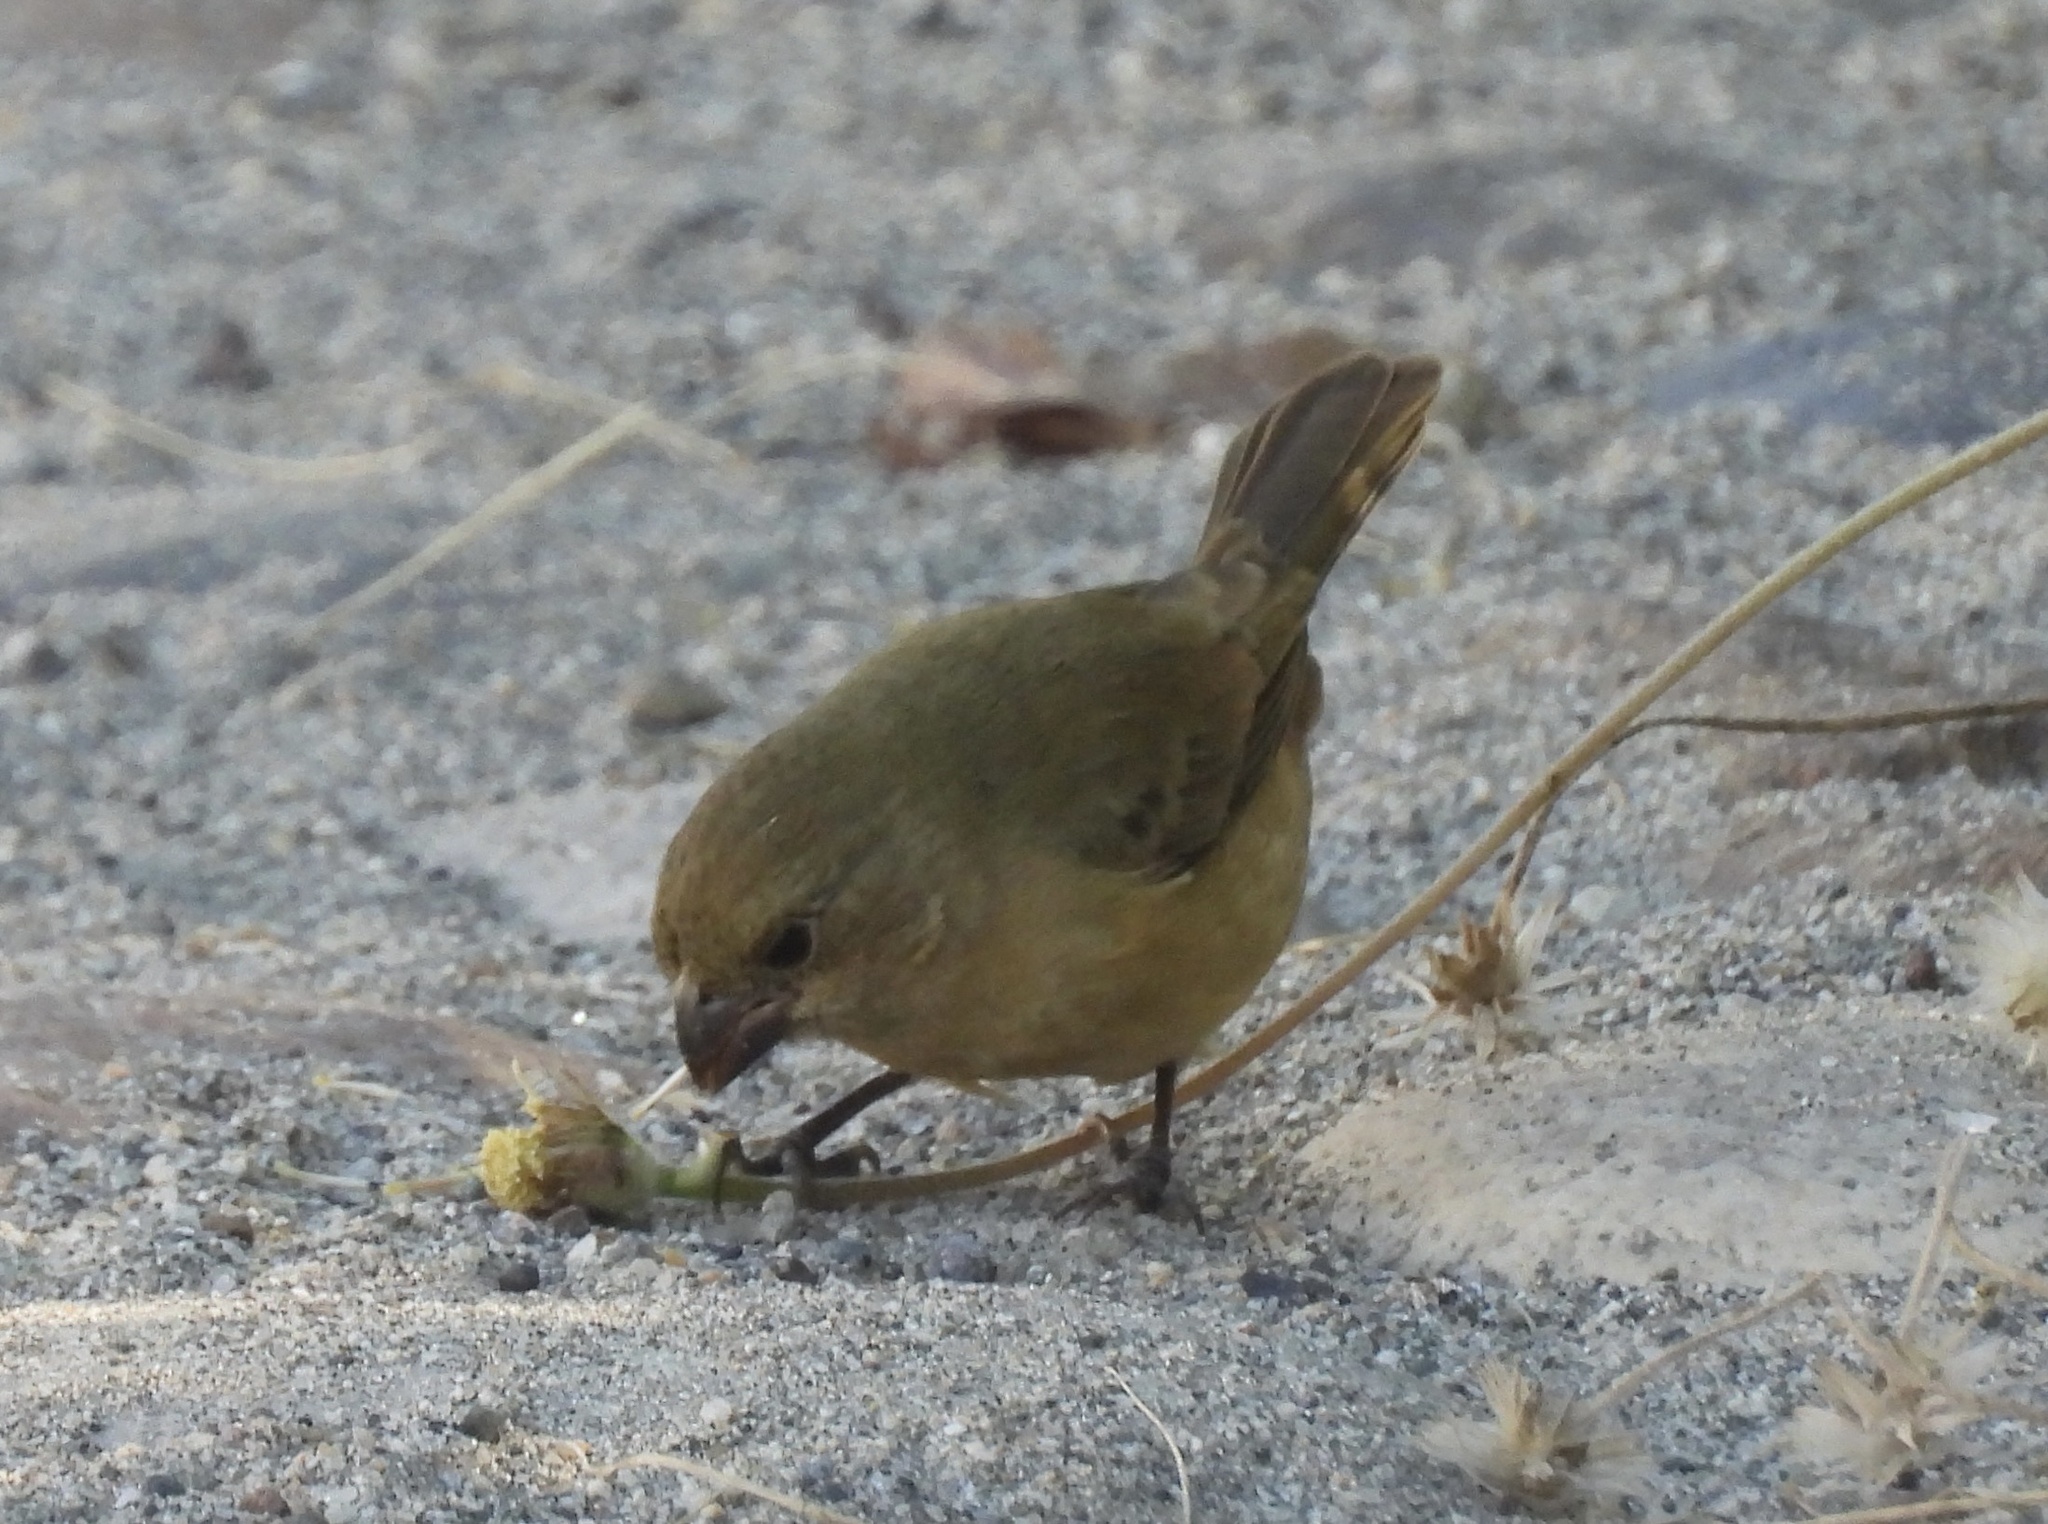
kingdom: Animalia
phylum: Chordata
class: Aves
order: Passeriformes
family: Thraupidae
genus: Sporophila
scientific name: Sporophila torqueola
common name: White-collared seedeater
